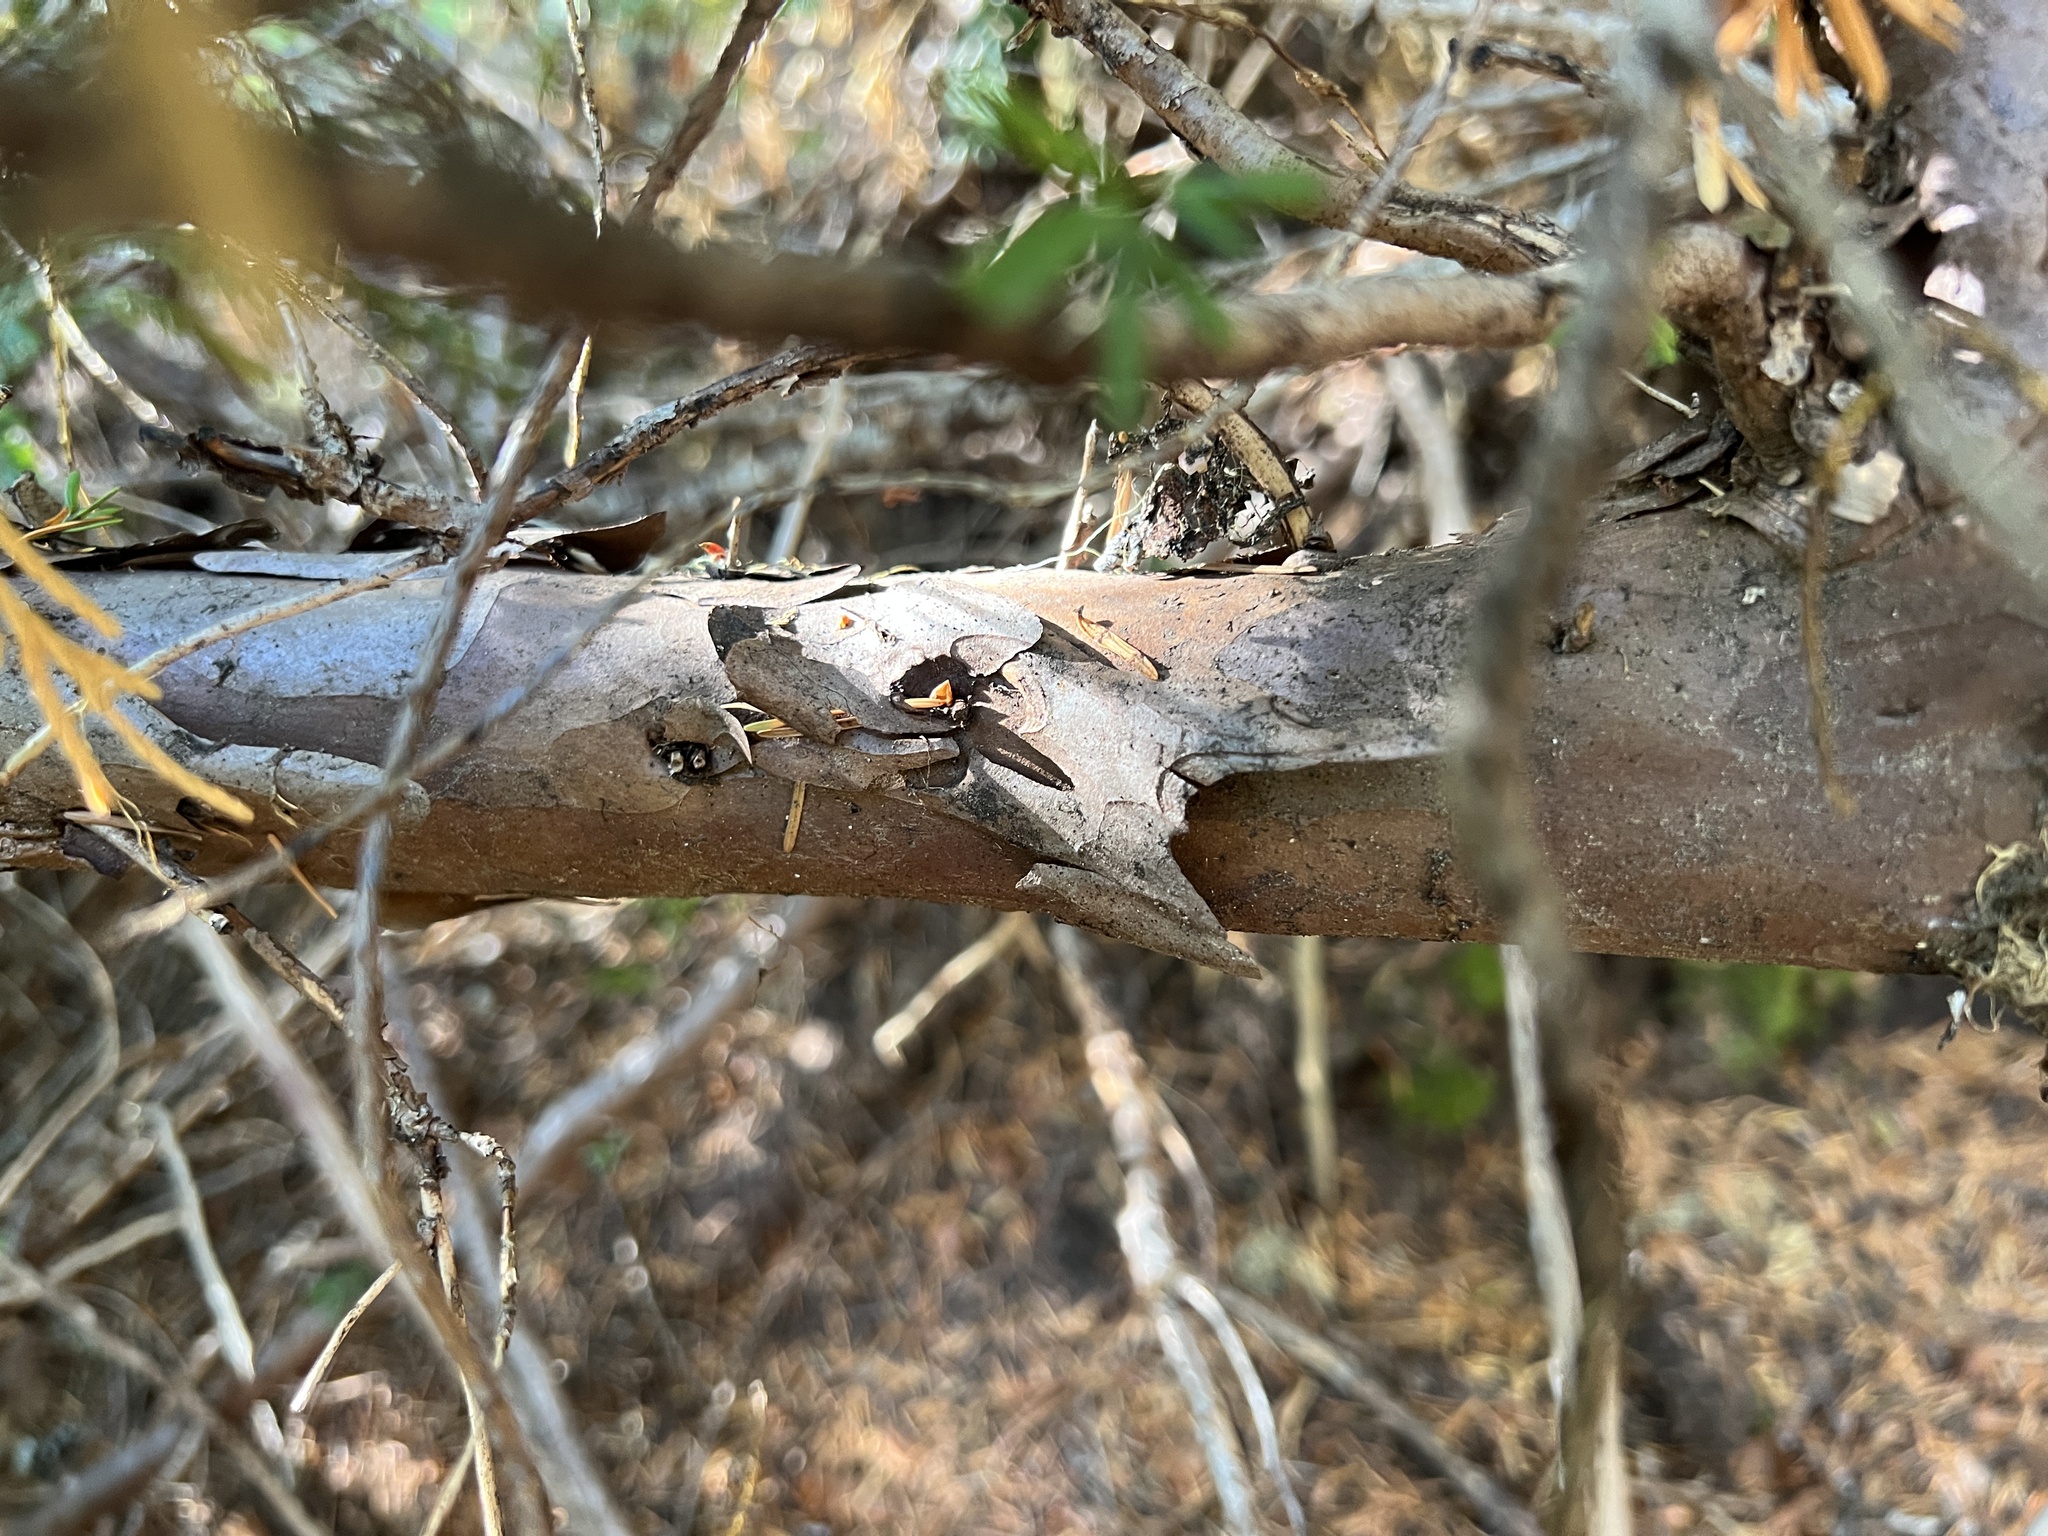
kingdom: Plantae
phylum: Tracheophyta
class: Pinopsida
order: Pinales
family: Taxaceae
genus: Taxus
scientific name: Taxus brevifolia
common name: Pacific yew
